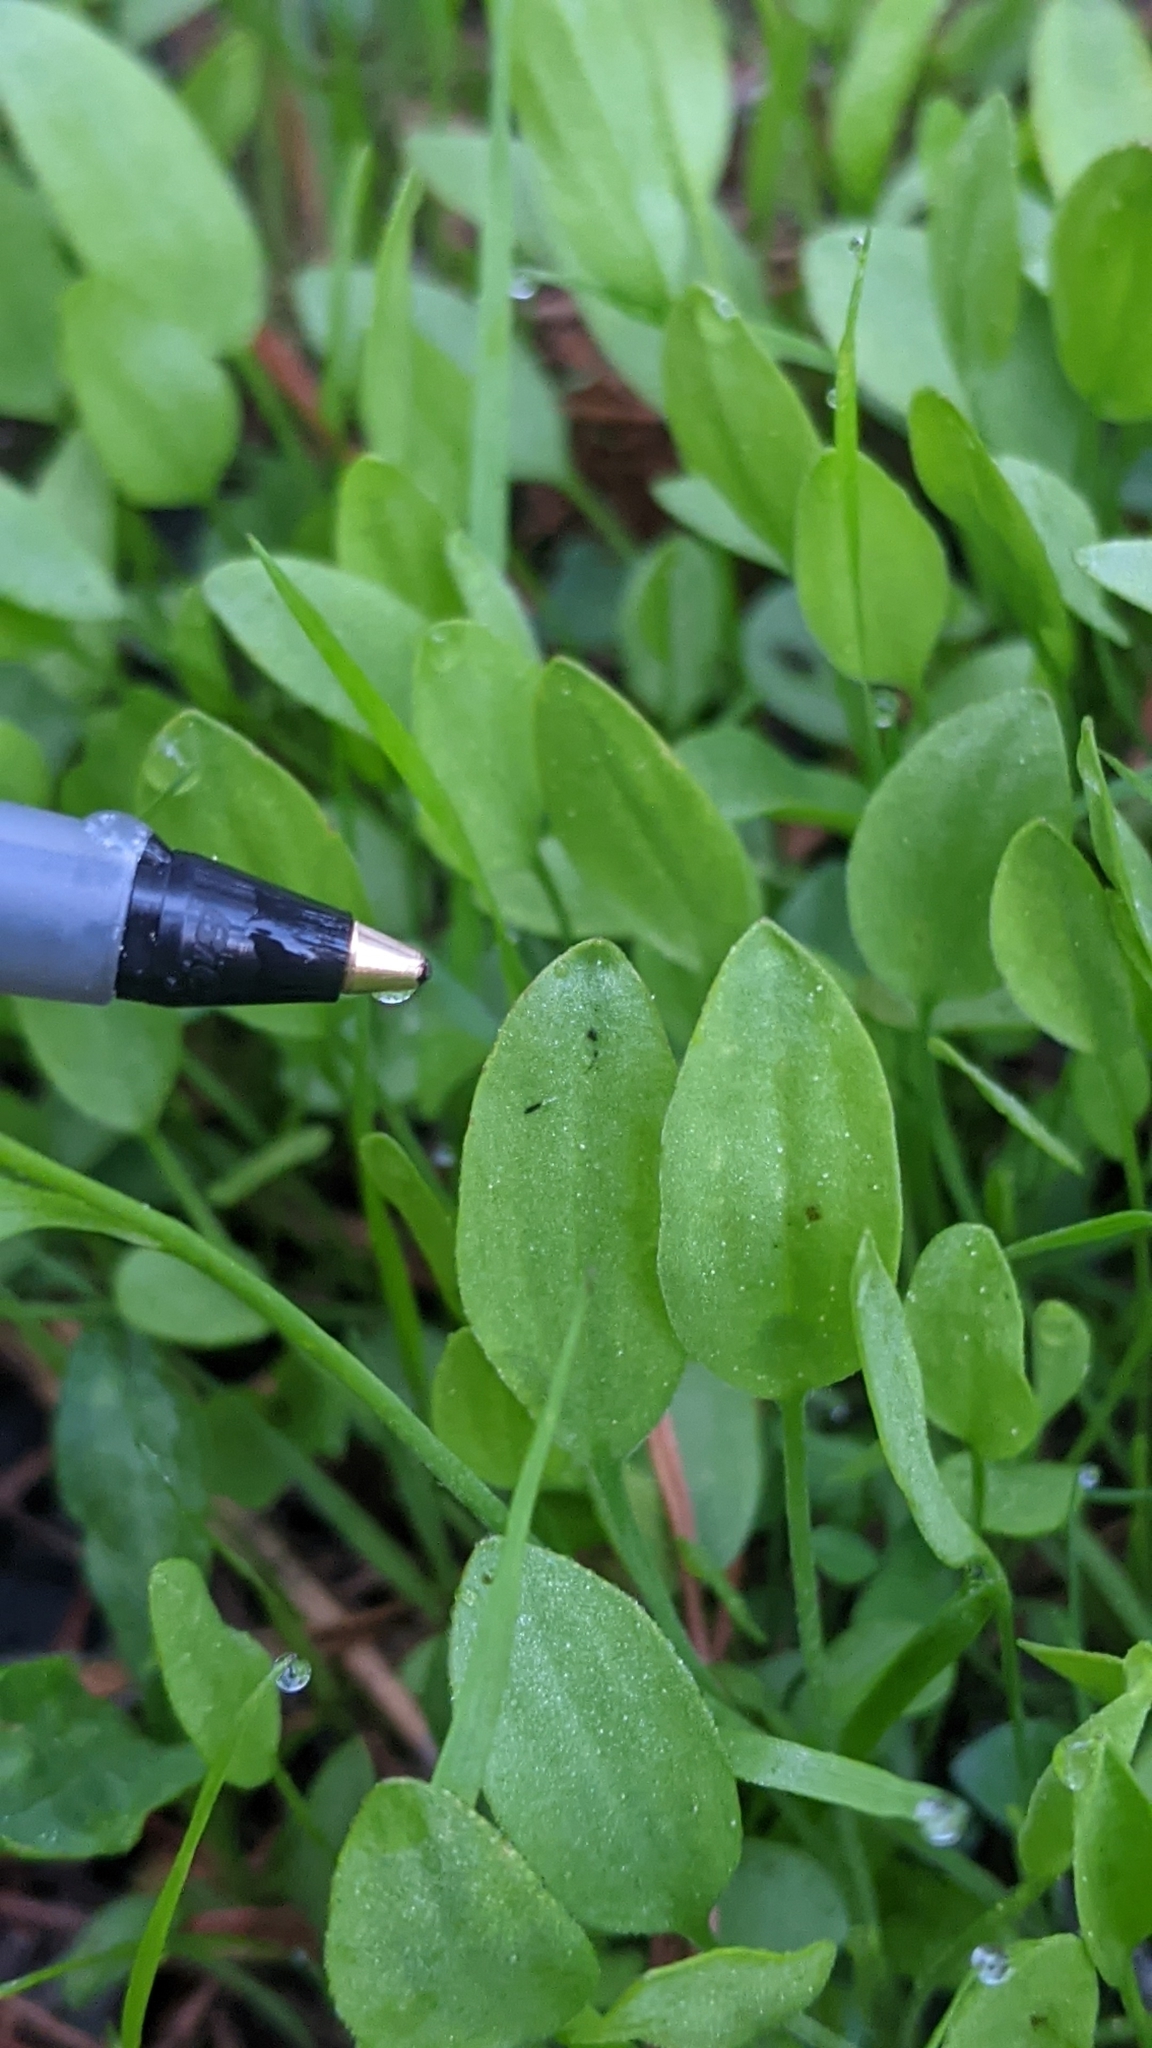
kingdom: Plantae
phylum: Tracheophyta
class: Magnoliopsida
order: Ranunculales
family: Ranunculaceae
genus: Ranunculus
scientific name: Ranunculus alismifolius
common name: Plantain-leaved buttercup
